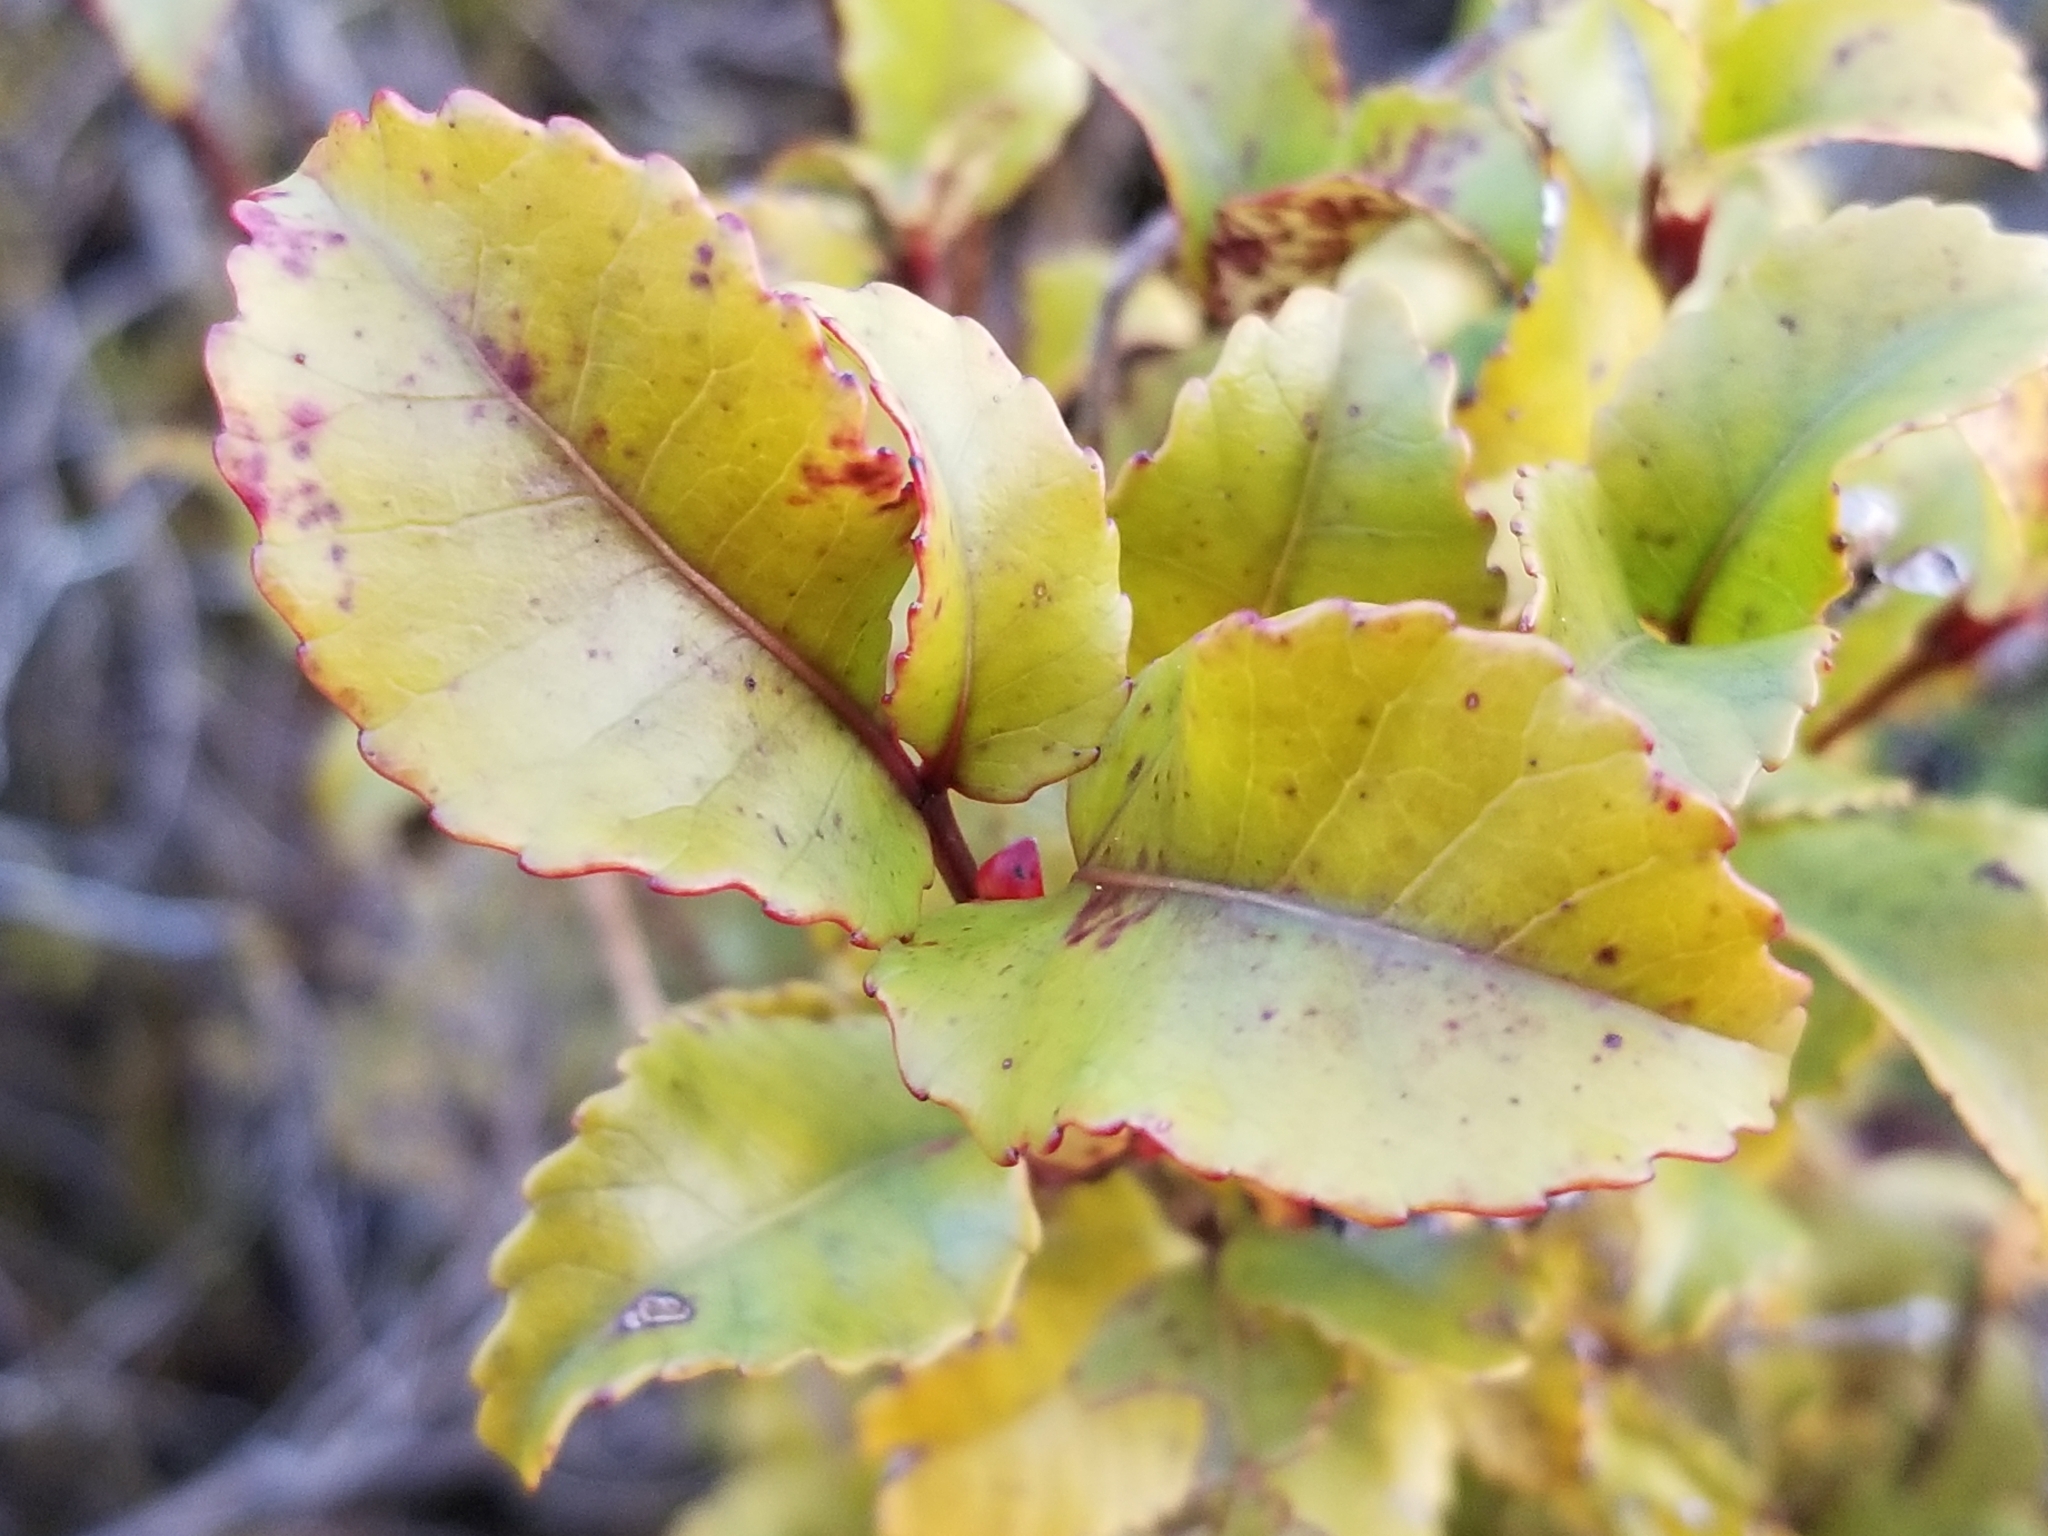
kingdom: Plantae
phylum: Tracheophyta
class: Magnoliopsida
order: Oxalidales
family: Cunoniaceae
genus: Pterophylla
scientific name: Pterophylla racemosa
